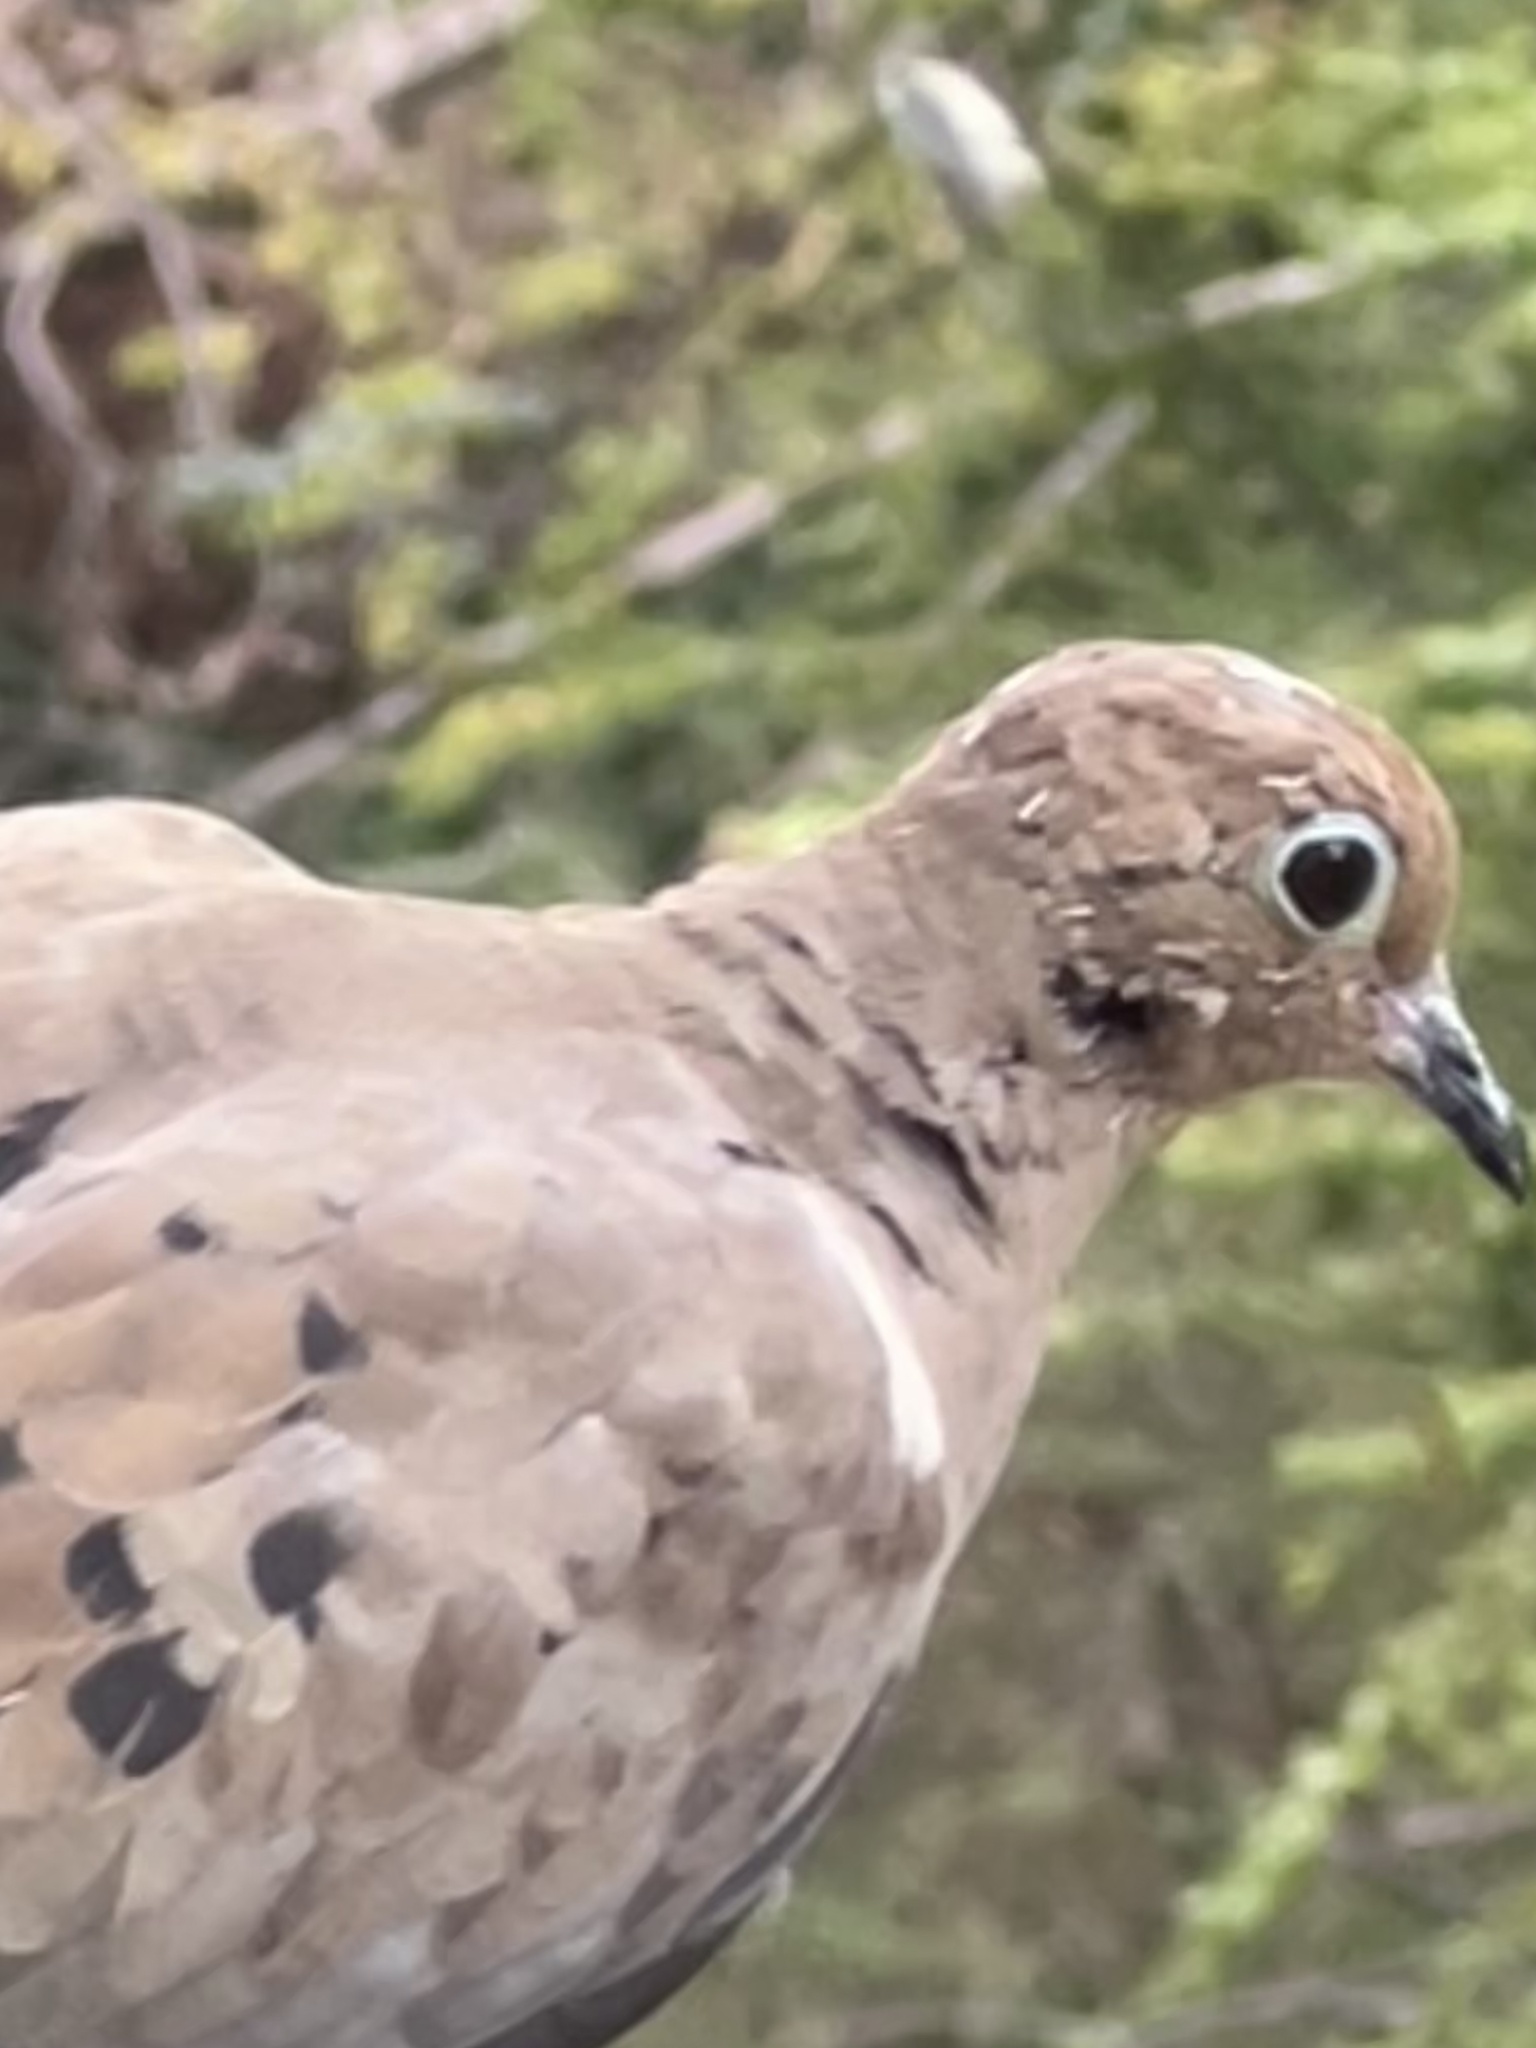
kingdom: Animalia
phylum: Chordata
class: Aves
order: Columbiformes
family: Columbidae
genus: Zenaida
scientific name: Zenaida macroura
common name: Mourning dove
